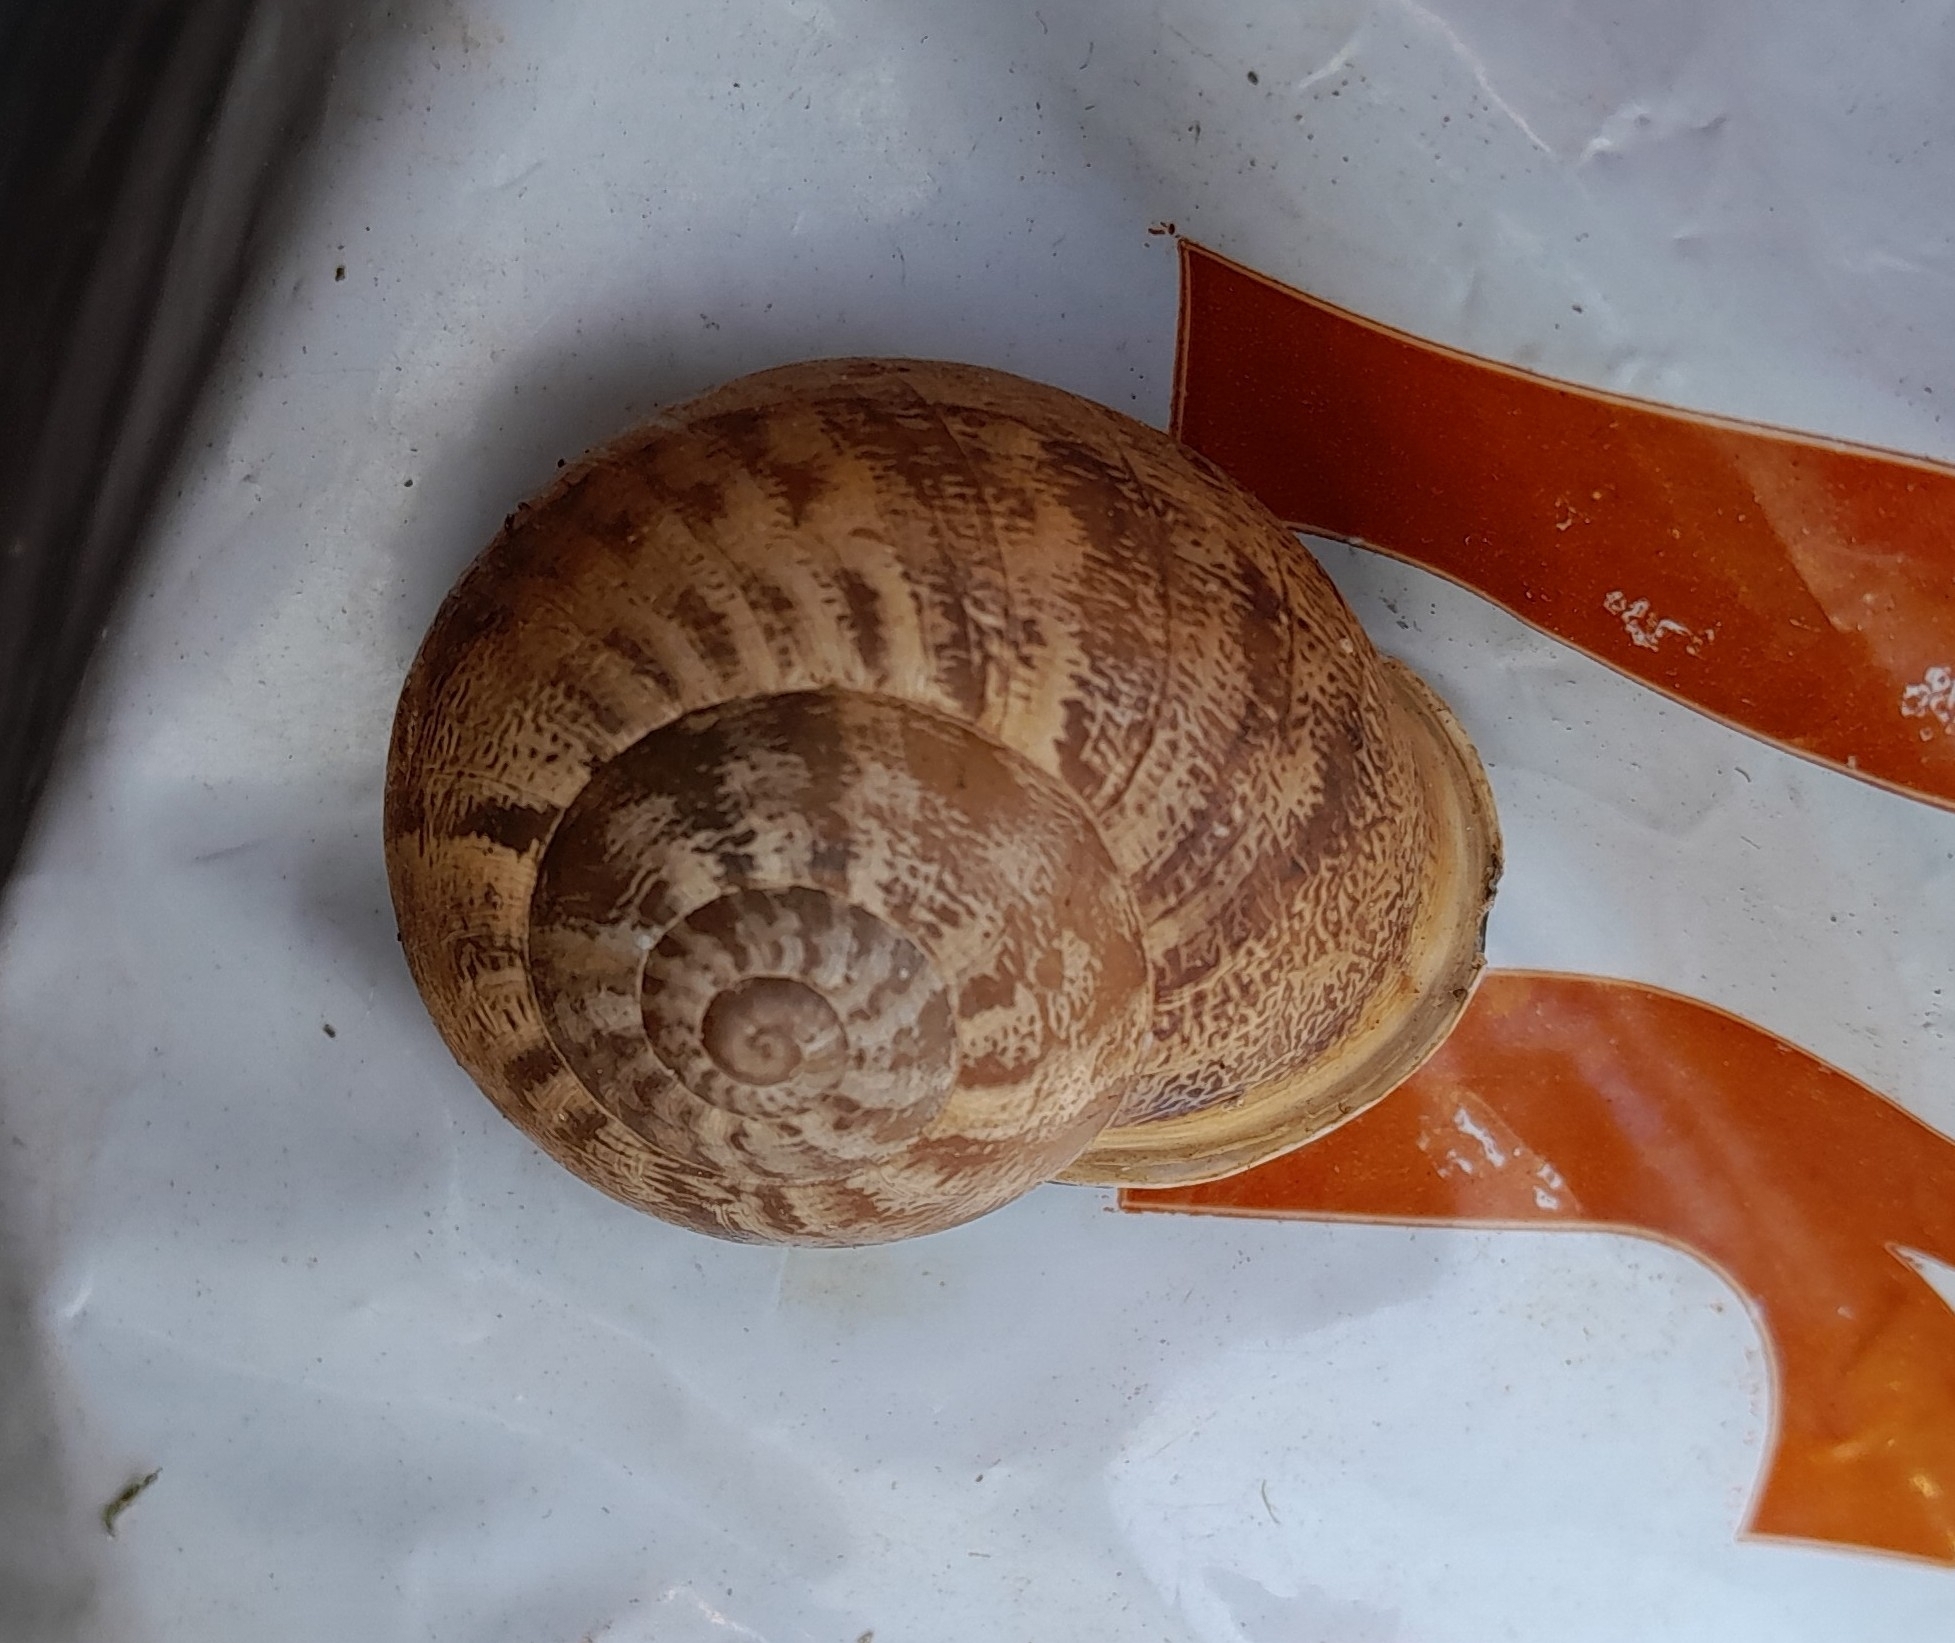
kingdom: Animalia
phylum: Mollusca
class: Gastropoda
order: Stylommatophora
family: Helicidae
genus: Eobania
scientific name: Eobania vermiculata
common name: Chocolateband snail
